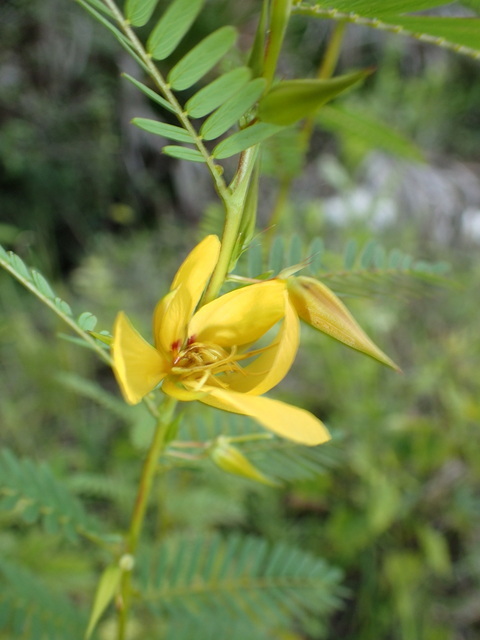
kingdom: Plantae
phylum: Tracheophyta
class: Magnoliopsida
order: Fabales
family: Fabaceae
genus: Chamaecrista
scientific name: Chamaecrista fasciculata
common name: Golden cassia
